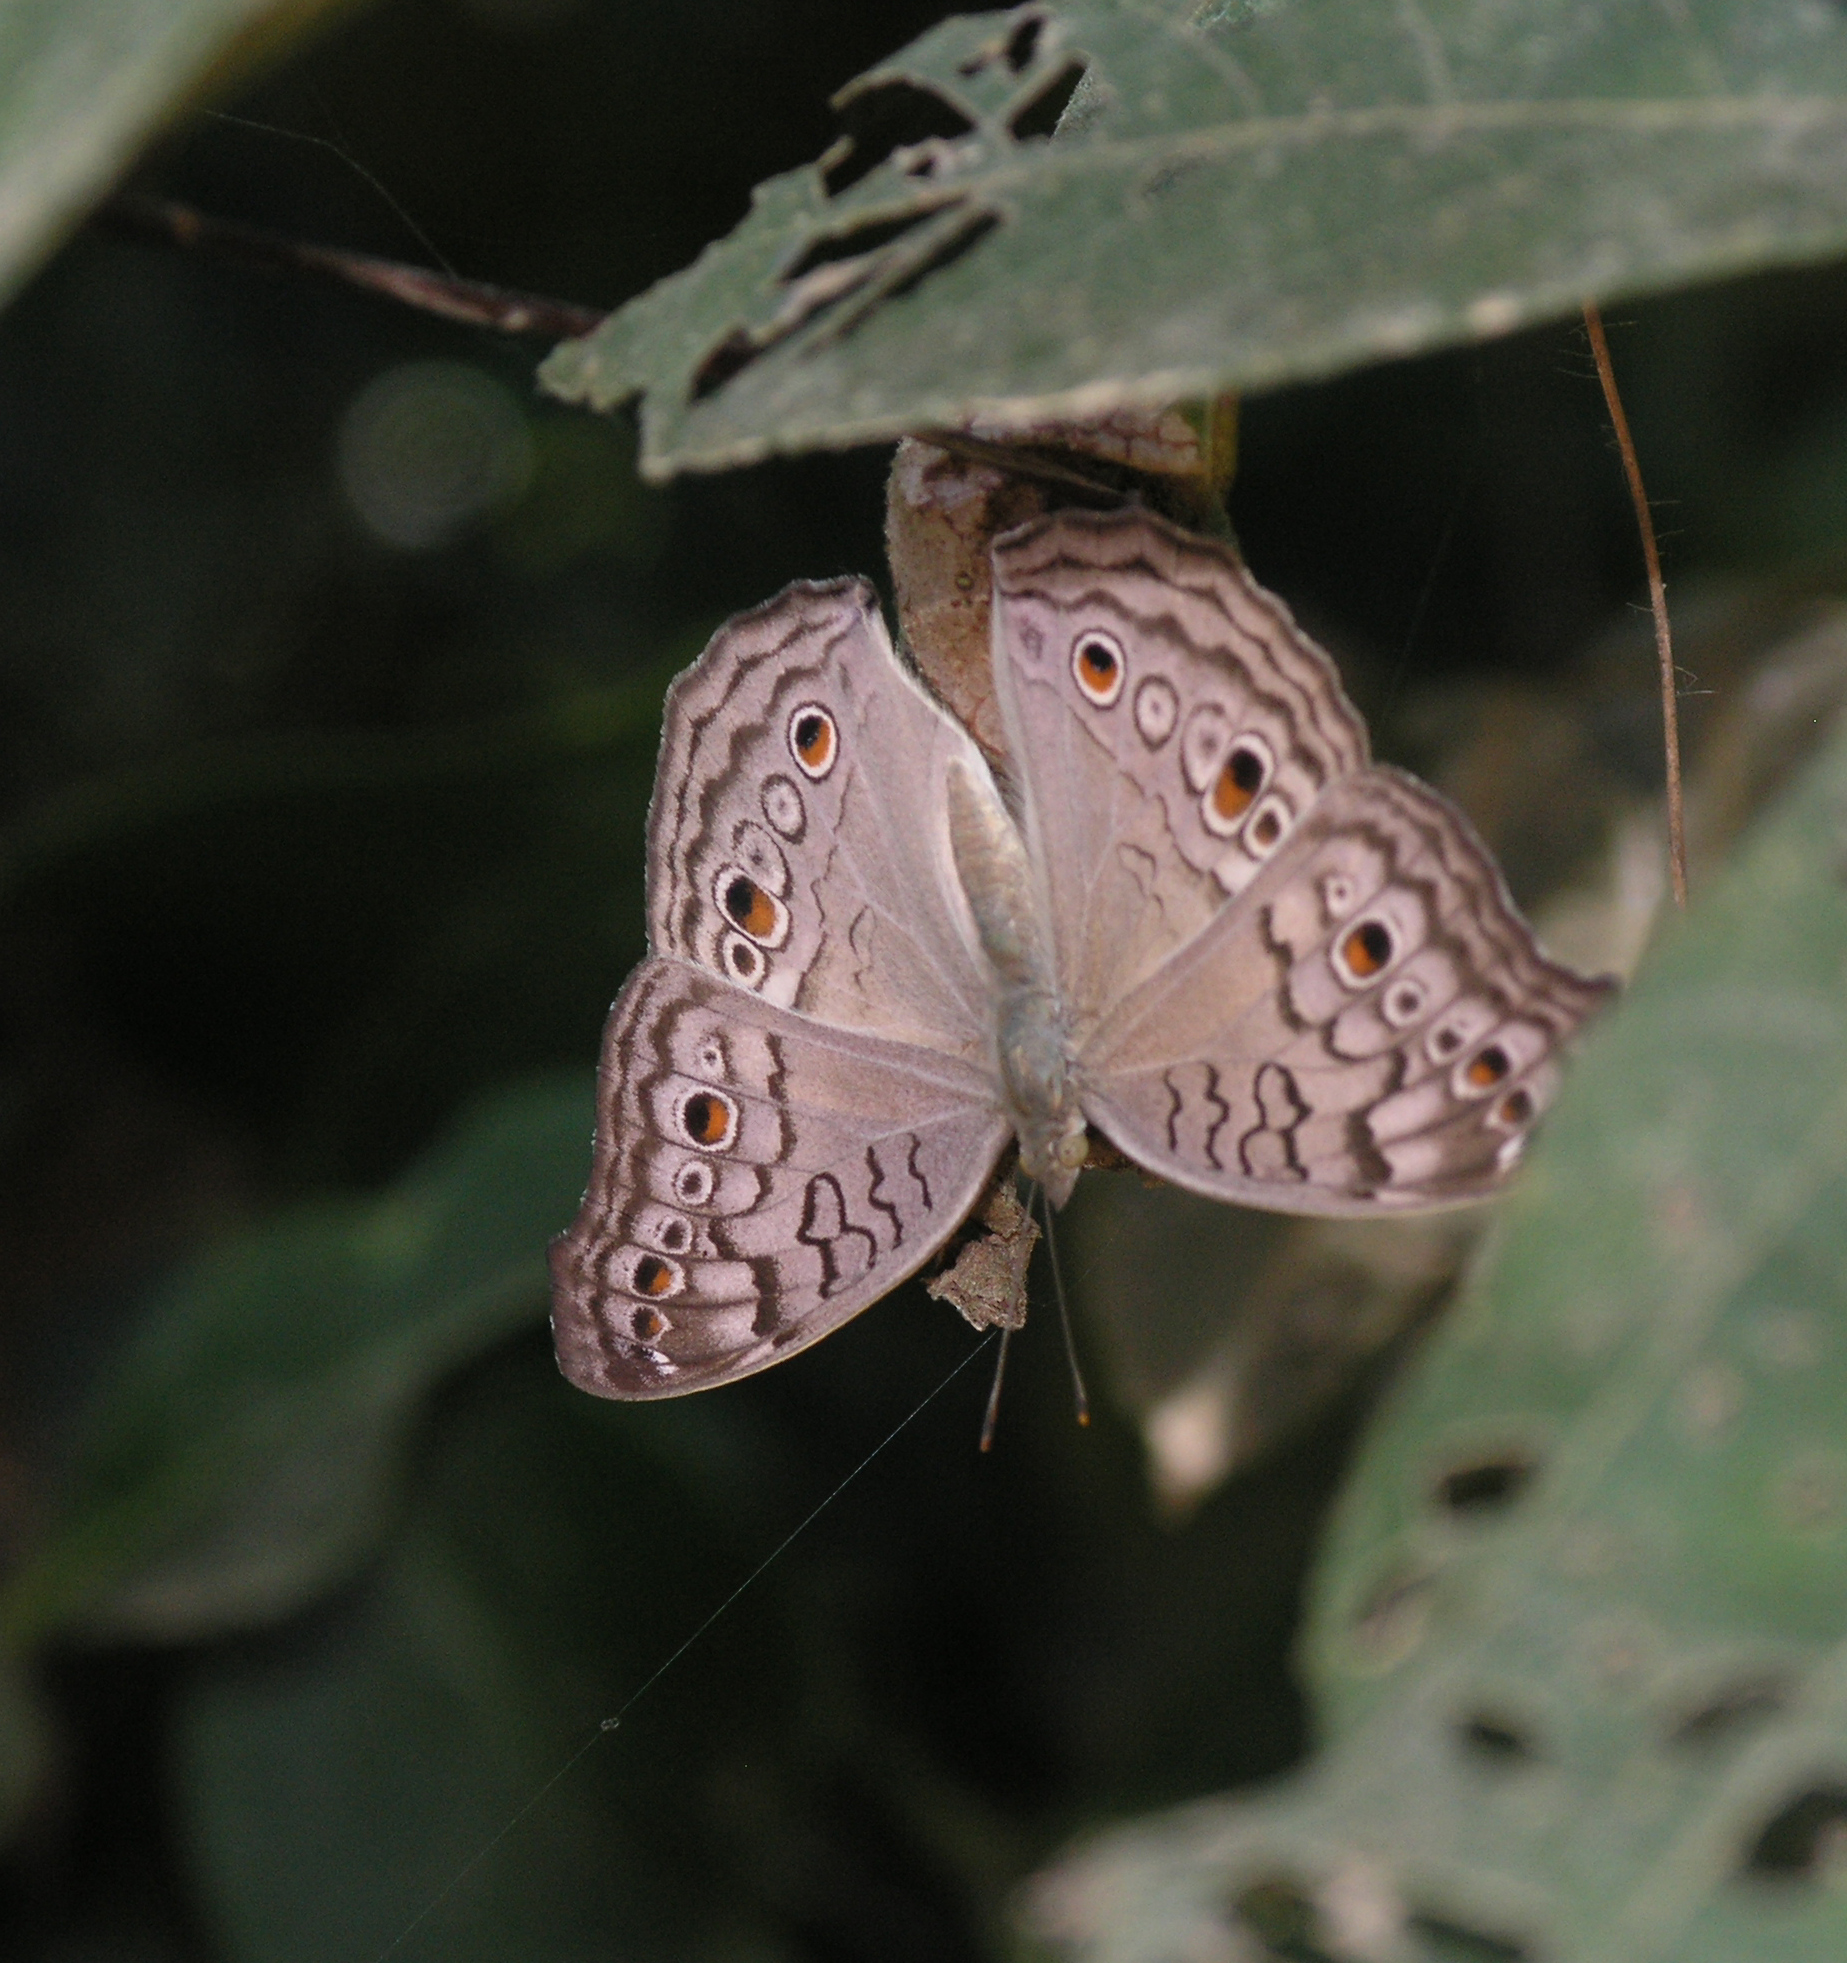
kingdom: Animalia
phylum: Arthropoda
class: Insecta
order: Lepidoptera
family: Nymphalidae
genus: Junonia
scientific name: Junonia atlites
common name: Grey pansy
